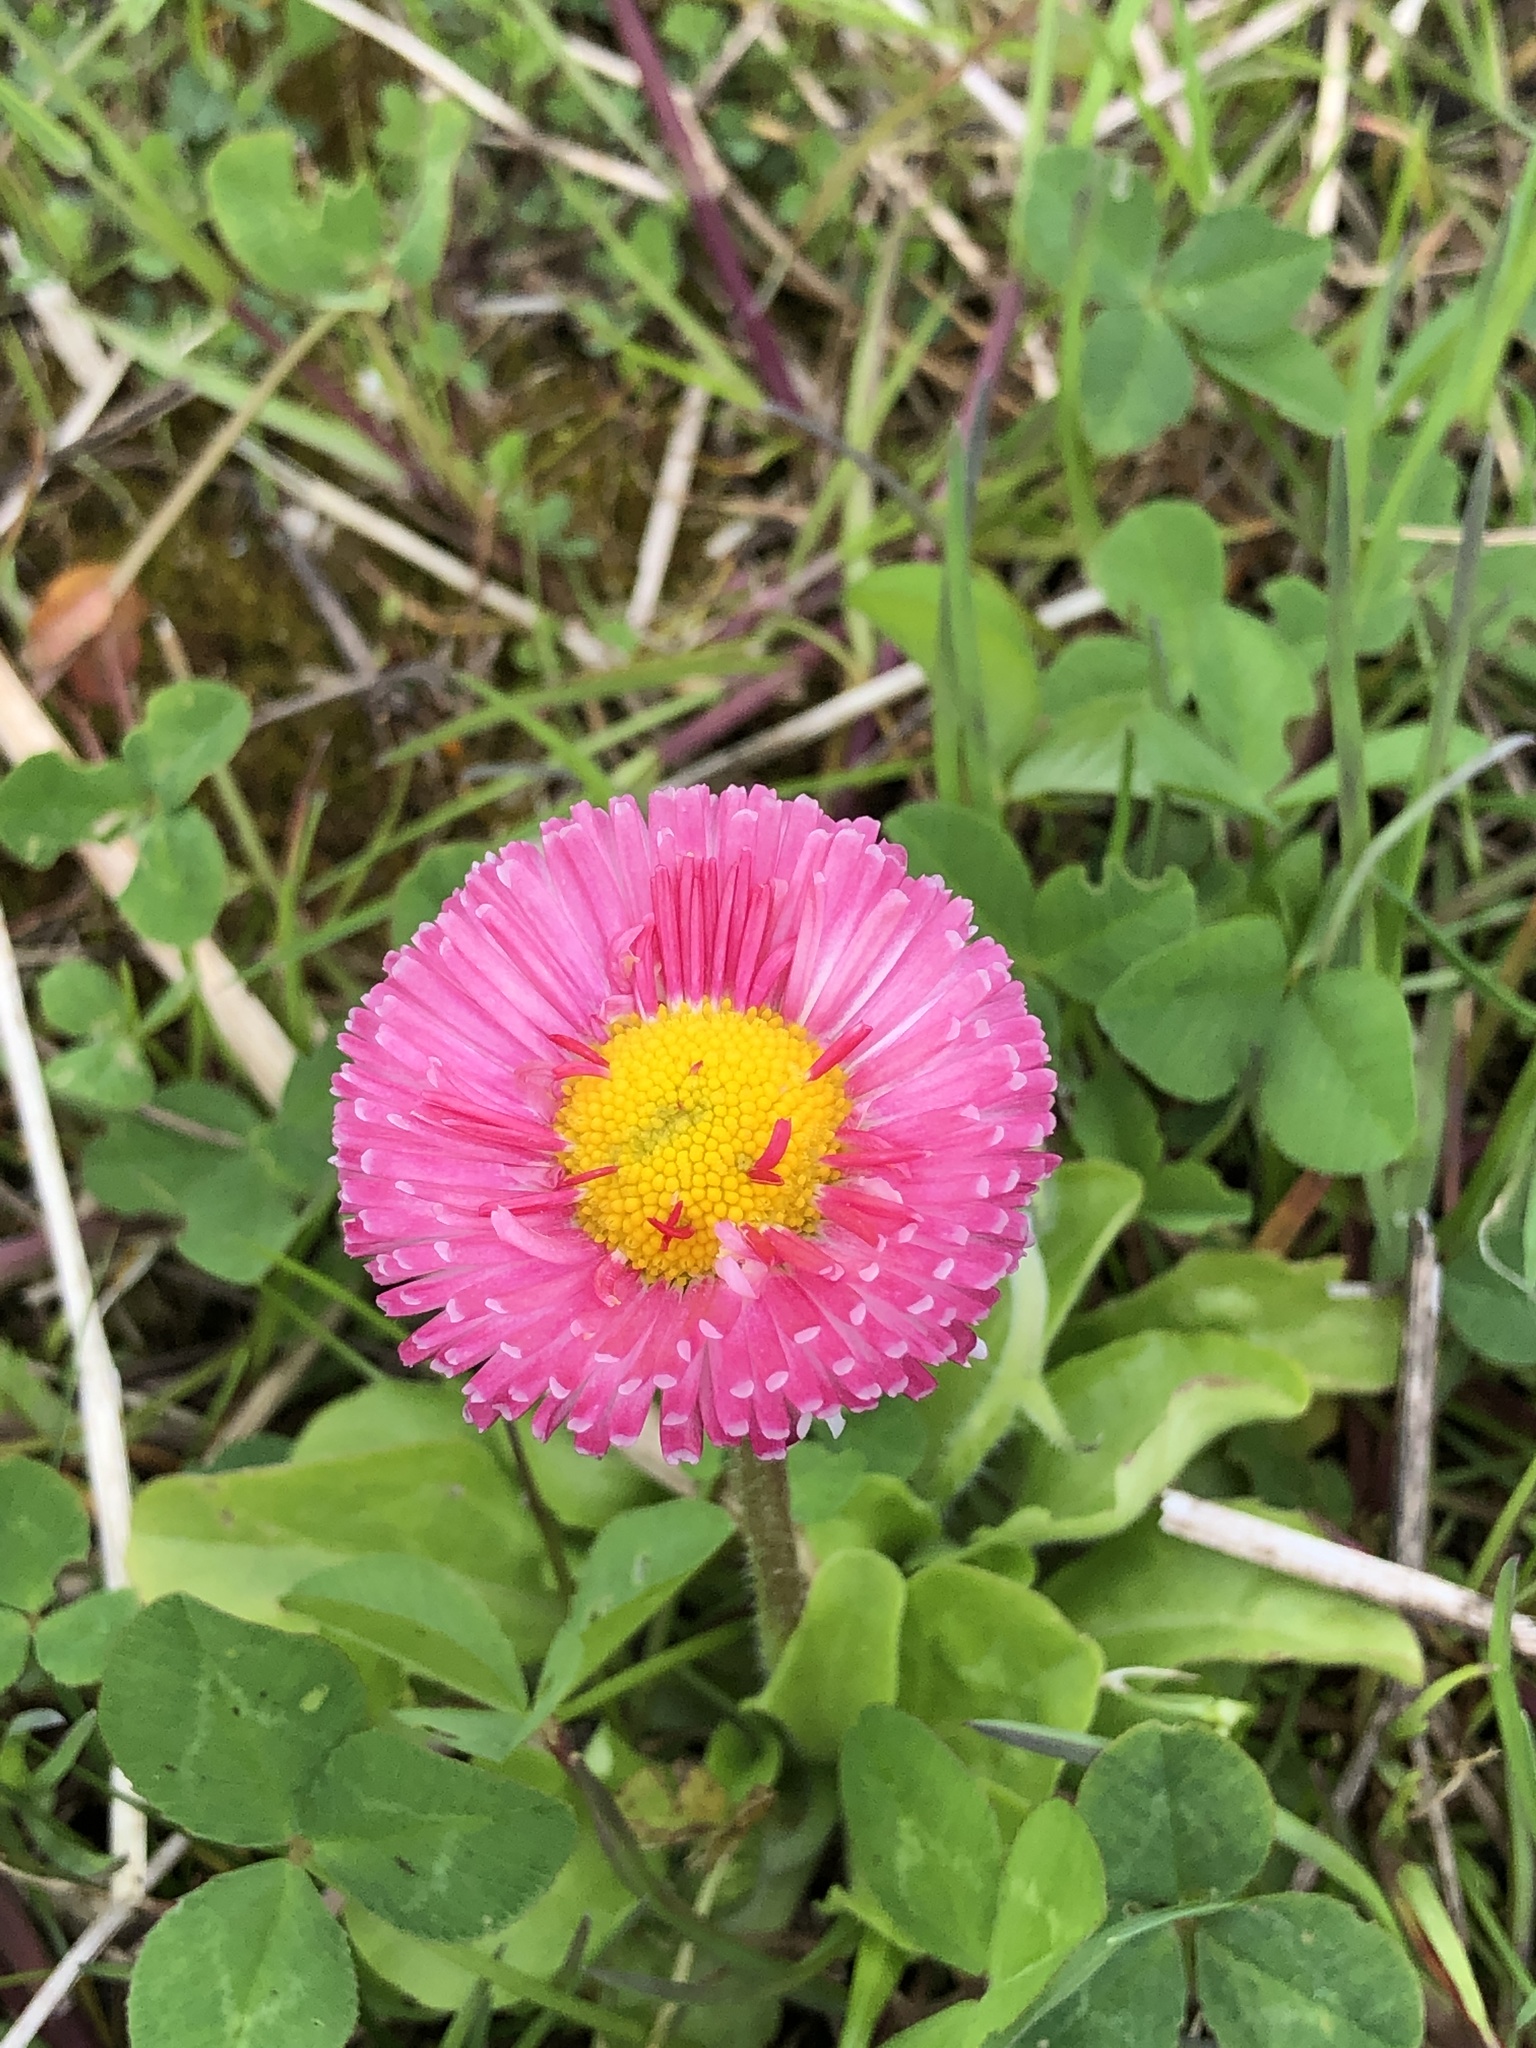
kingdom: Plantae
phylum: Tracheophyta
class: Magnoliopsida
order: Asterales
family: Asteraceae
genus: Bellis
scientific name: Bellis perennis
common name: Lawndaisy
